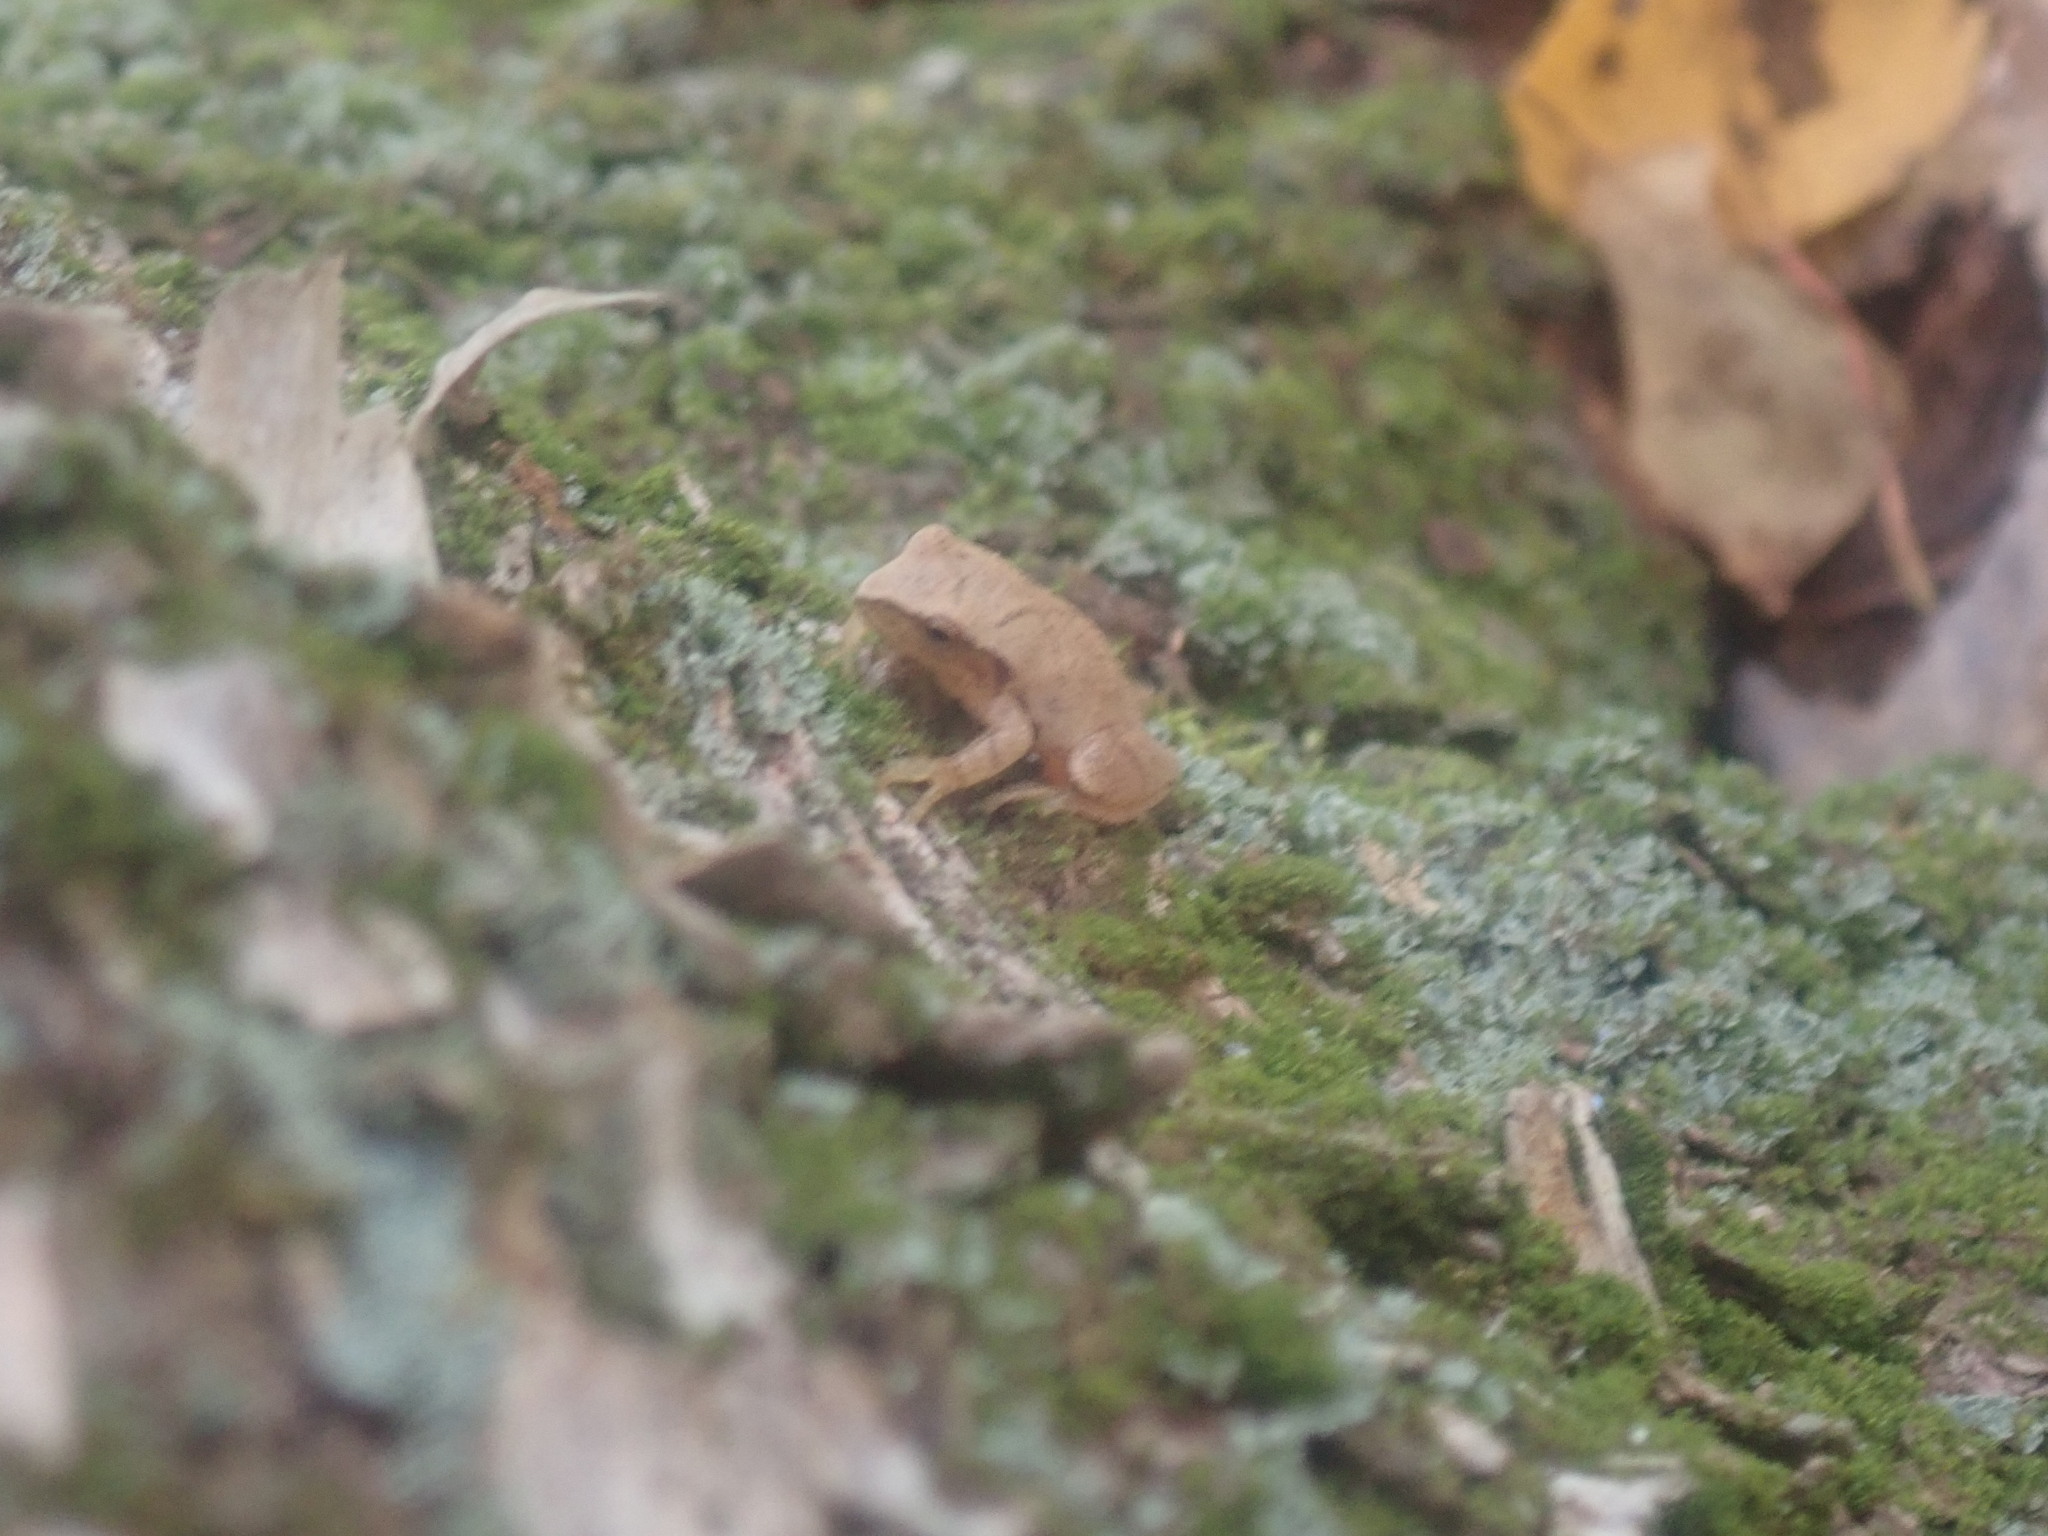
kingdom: Animalia
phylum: Chordata
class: Amphibia
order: Anura
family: Hylidae
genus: Pseudacris
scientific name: Pseudacris crucifer
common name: Spring peeper
